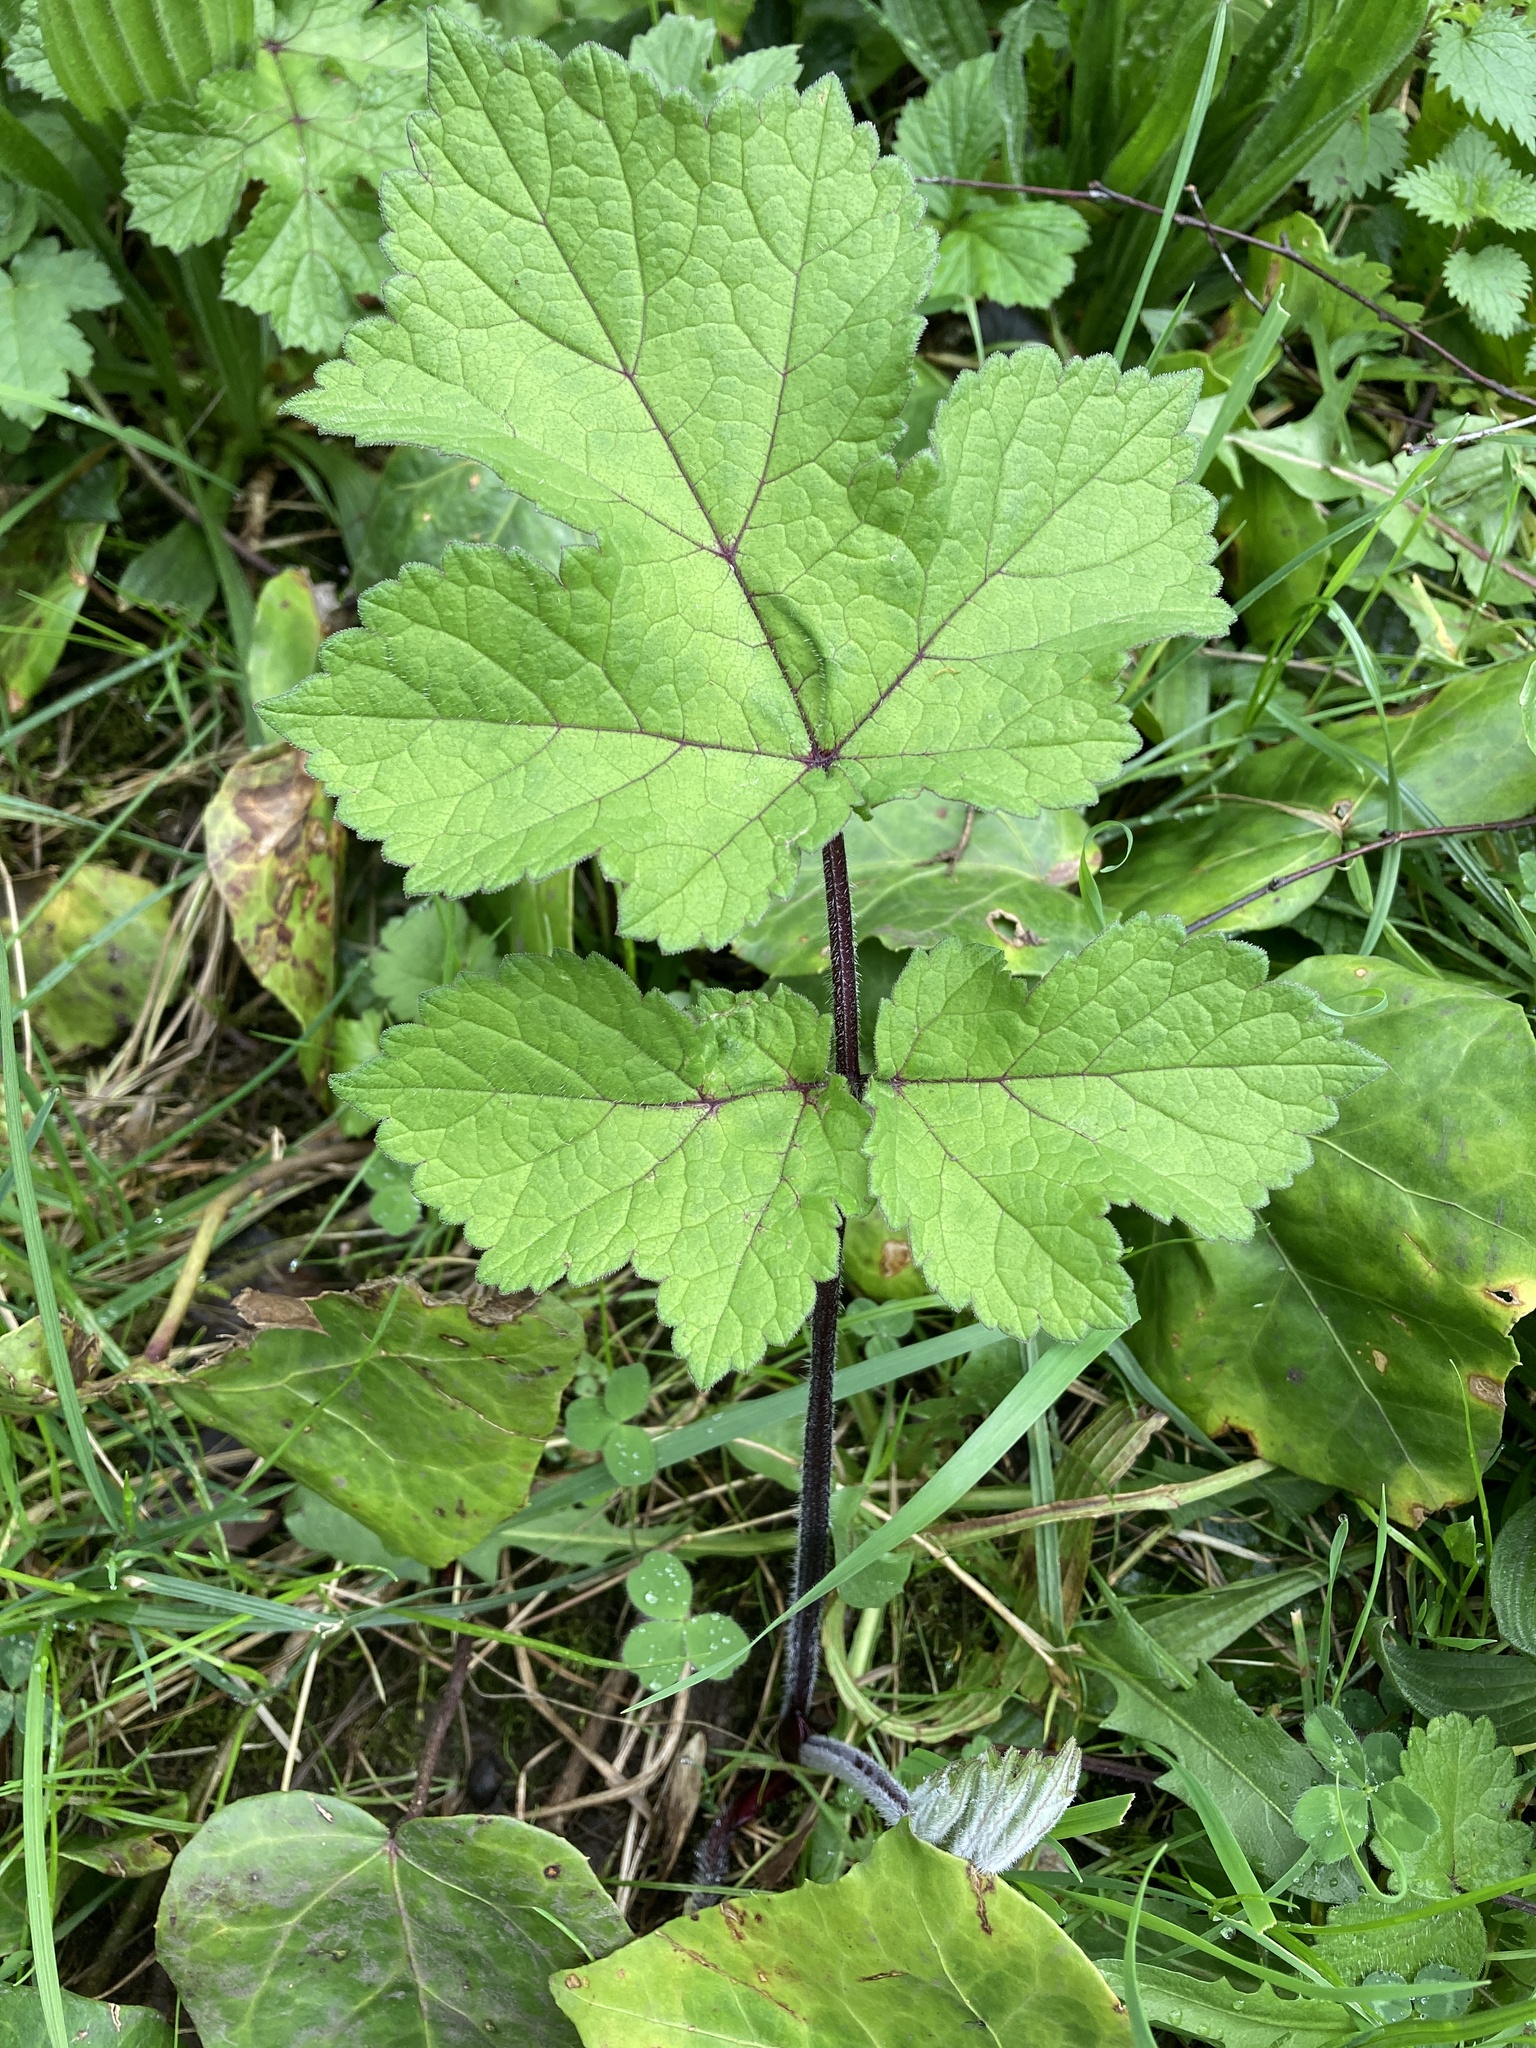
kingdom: Plantae
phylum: Tracheophyta
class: Magnoliopsida
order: Apiales
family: Apiaceae
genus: Heracleum
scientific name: Heracleum sphondylium
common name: Hogweed
